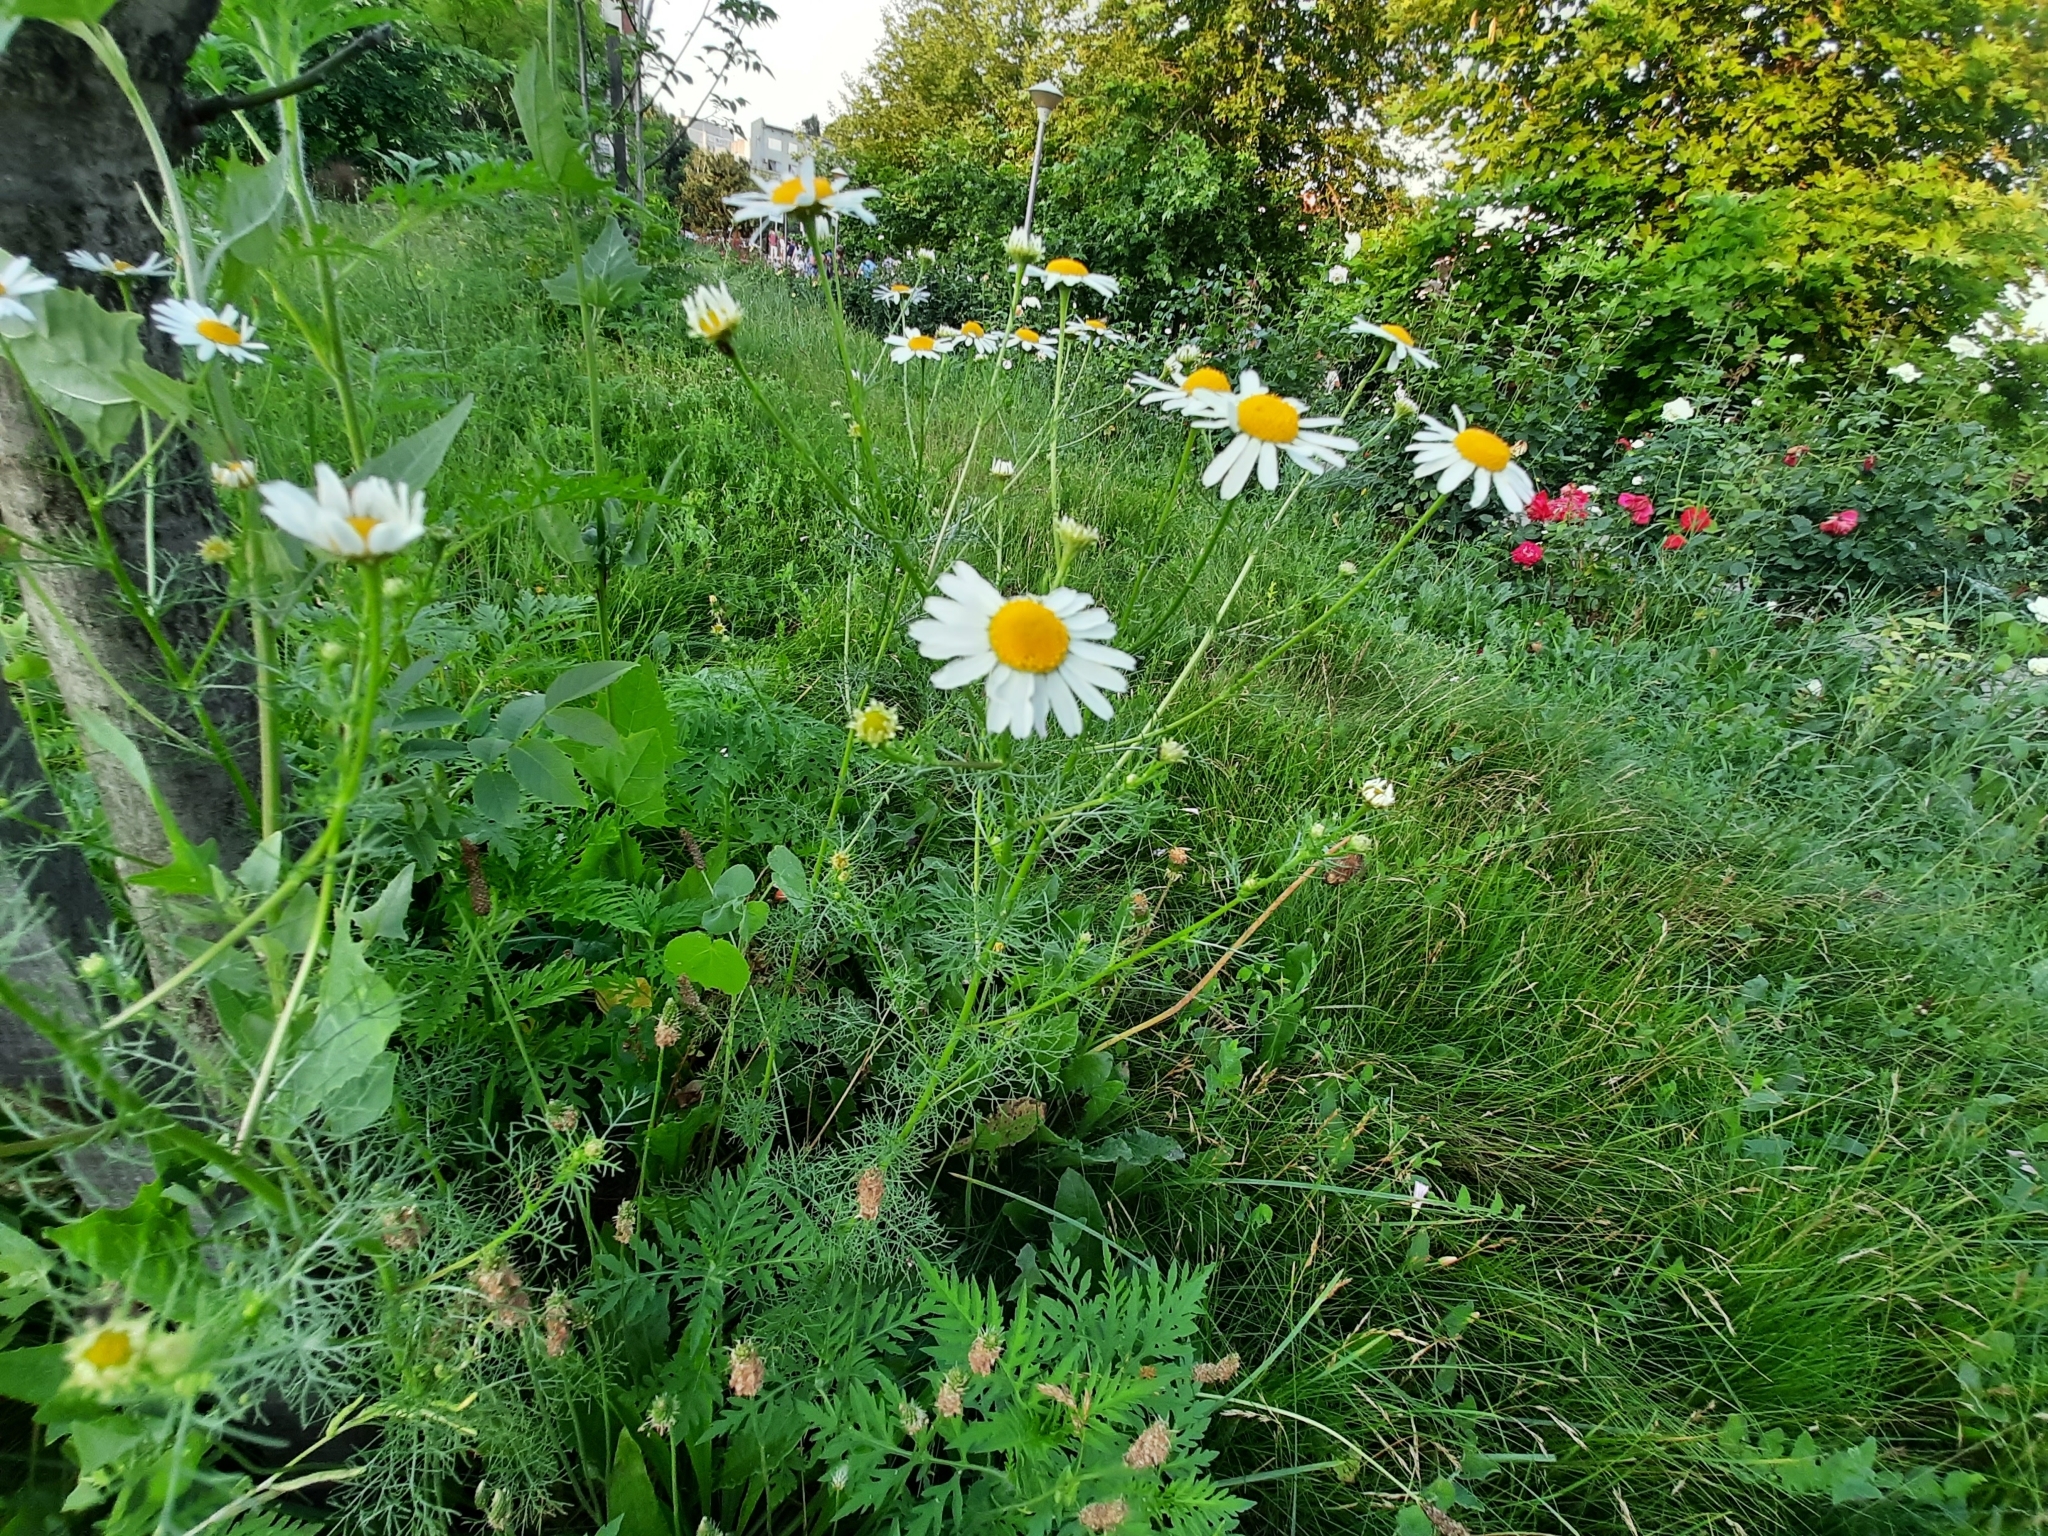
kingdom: Plantae
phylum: Tracheophyta
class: Magnoliopsida
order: Asterales
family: Asteraceae
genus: Tripleurospermum
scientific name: Tripleurospermum inodorum
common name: Scentless mayweed
